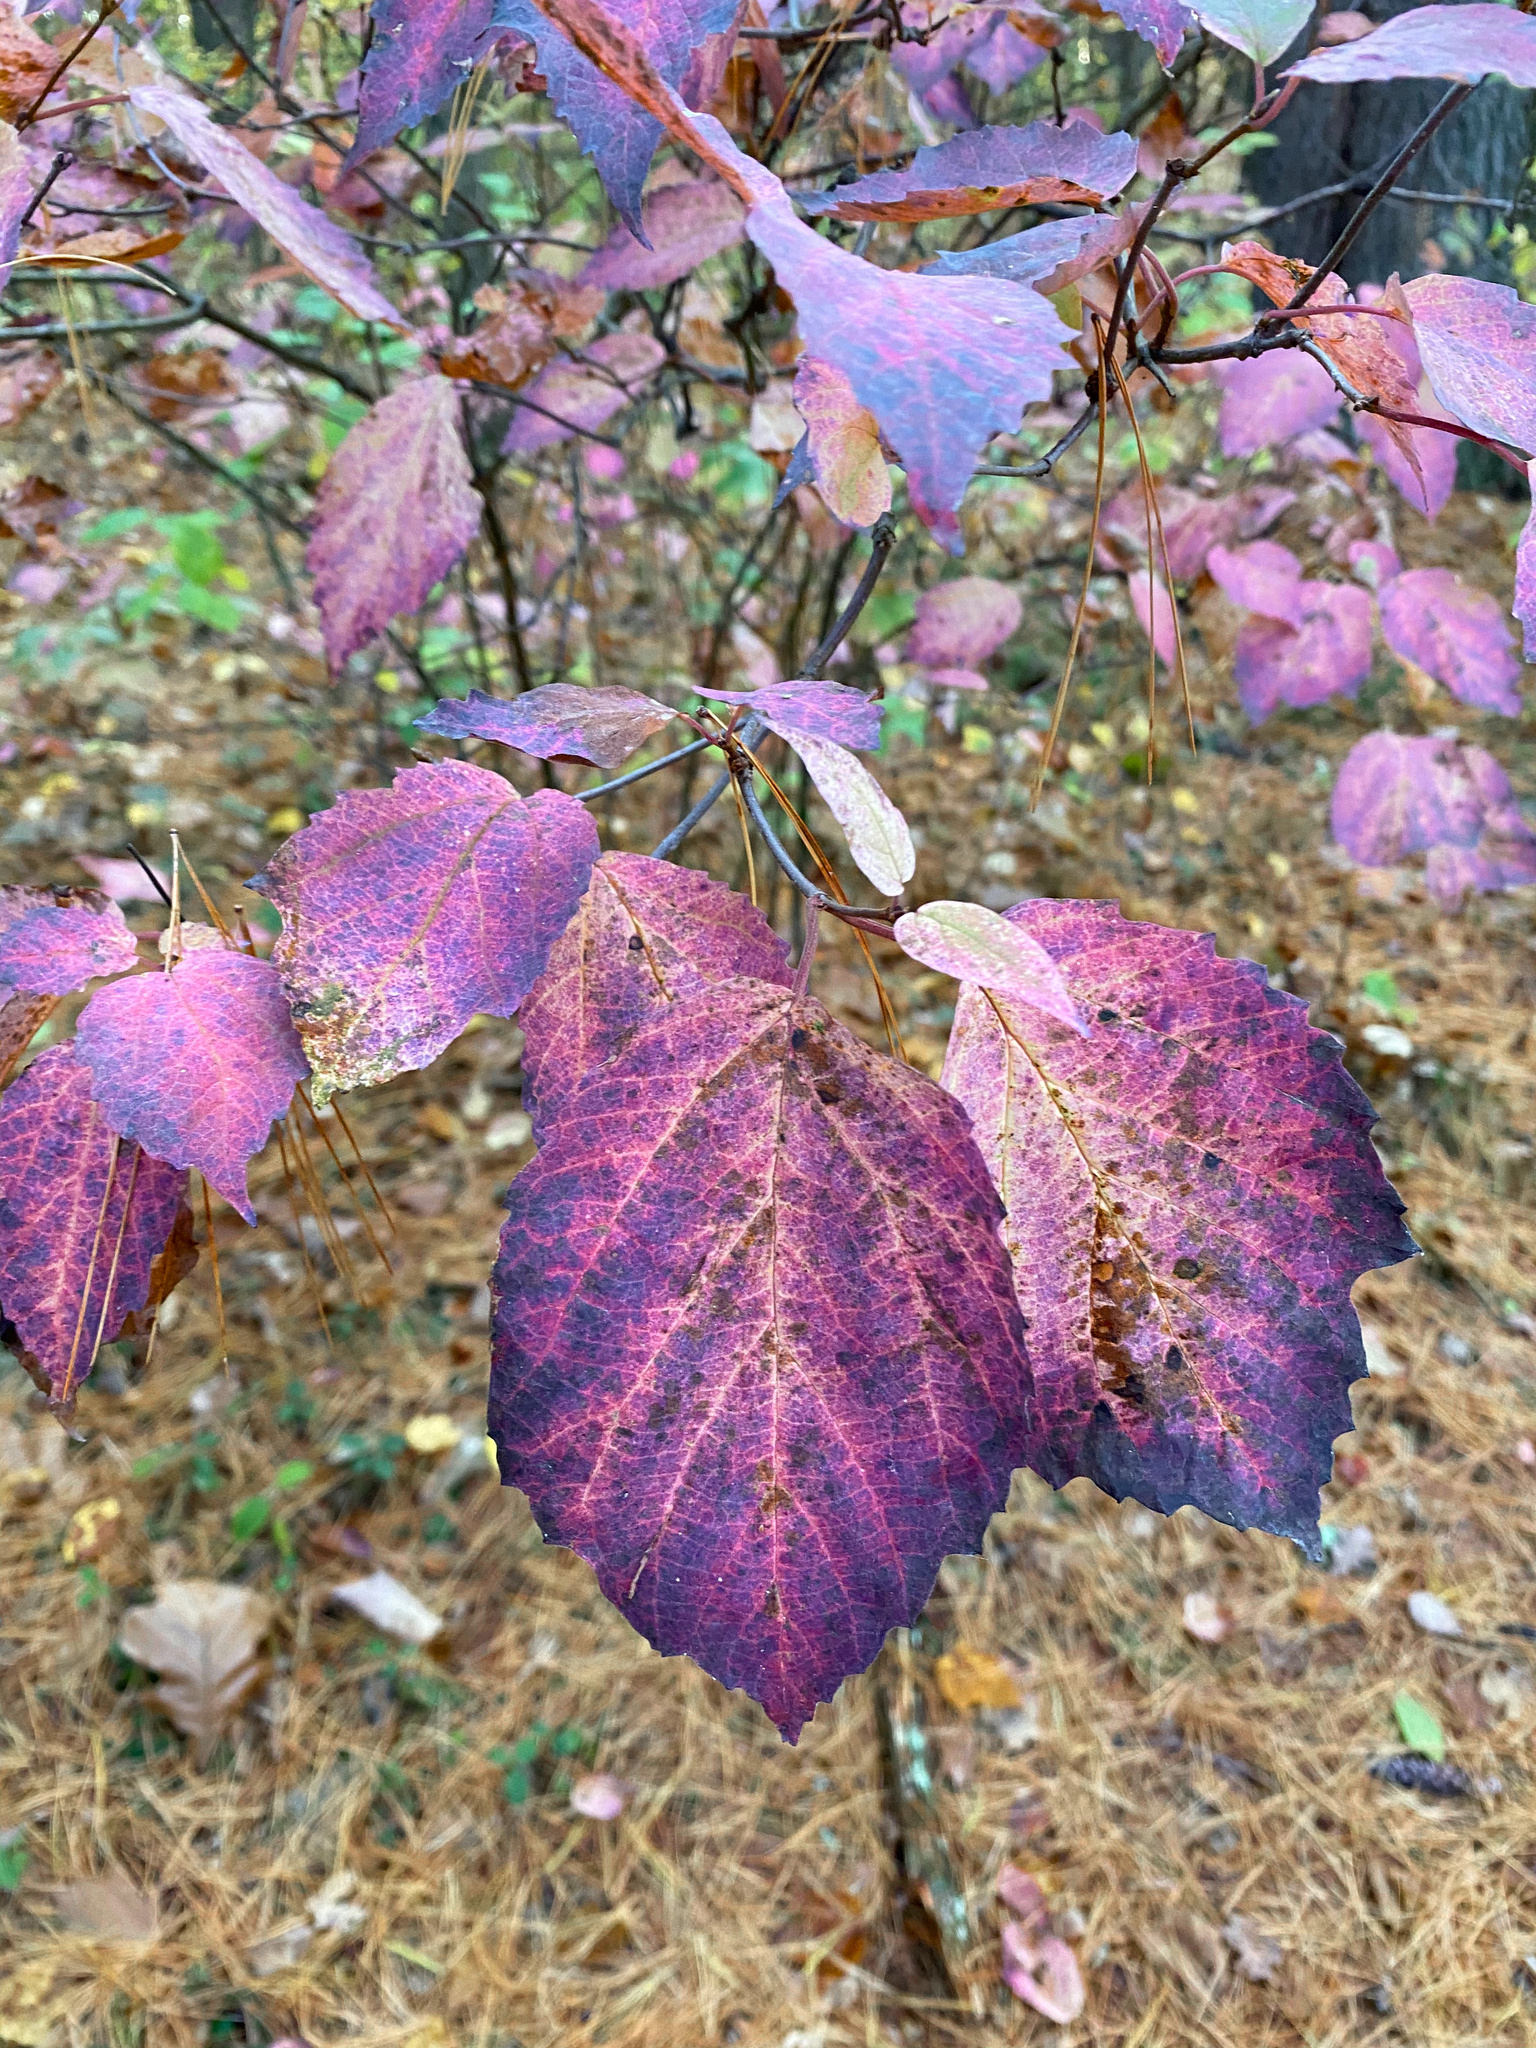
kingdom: Plantae
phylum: Tracheophyta
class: Magnoliopsida
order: Dipsacales
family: Viburnaceae
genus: Viburnum
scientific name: Viburnum acerifolium
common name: Dockmackie
